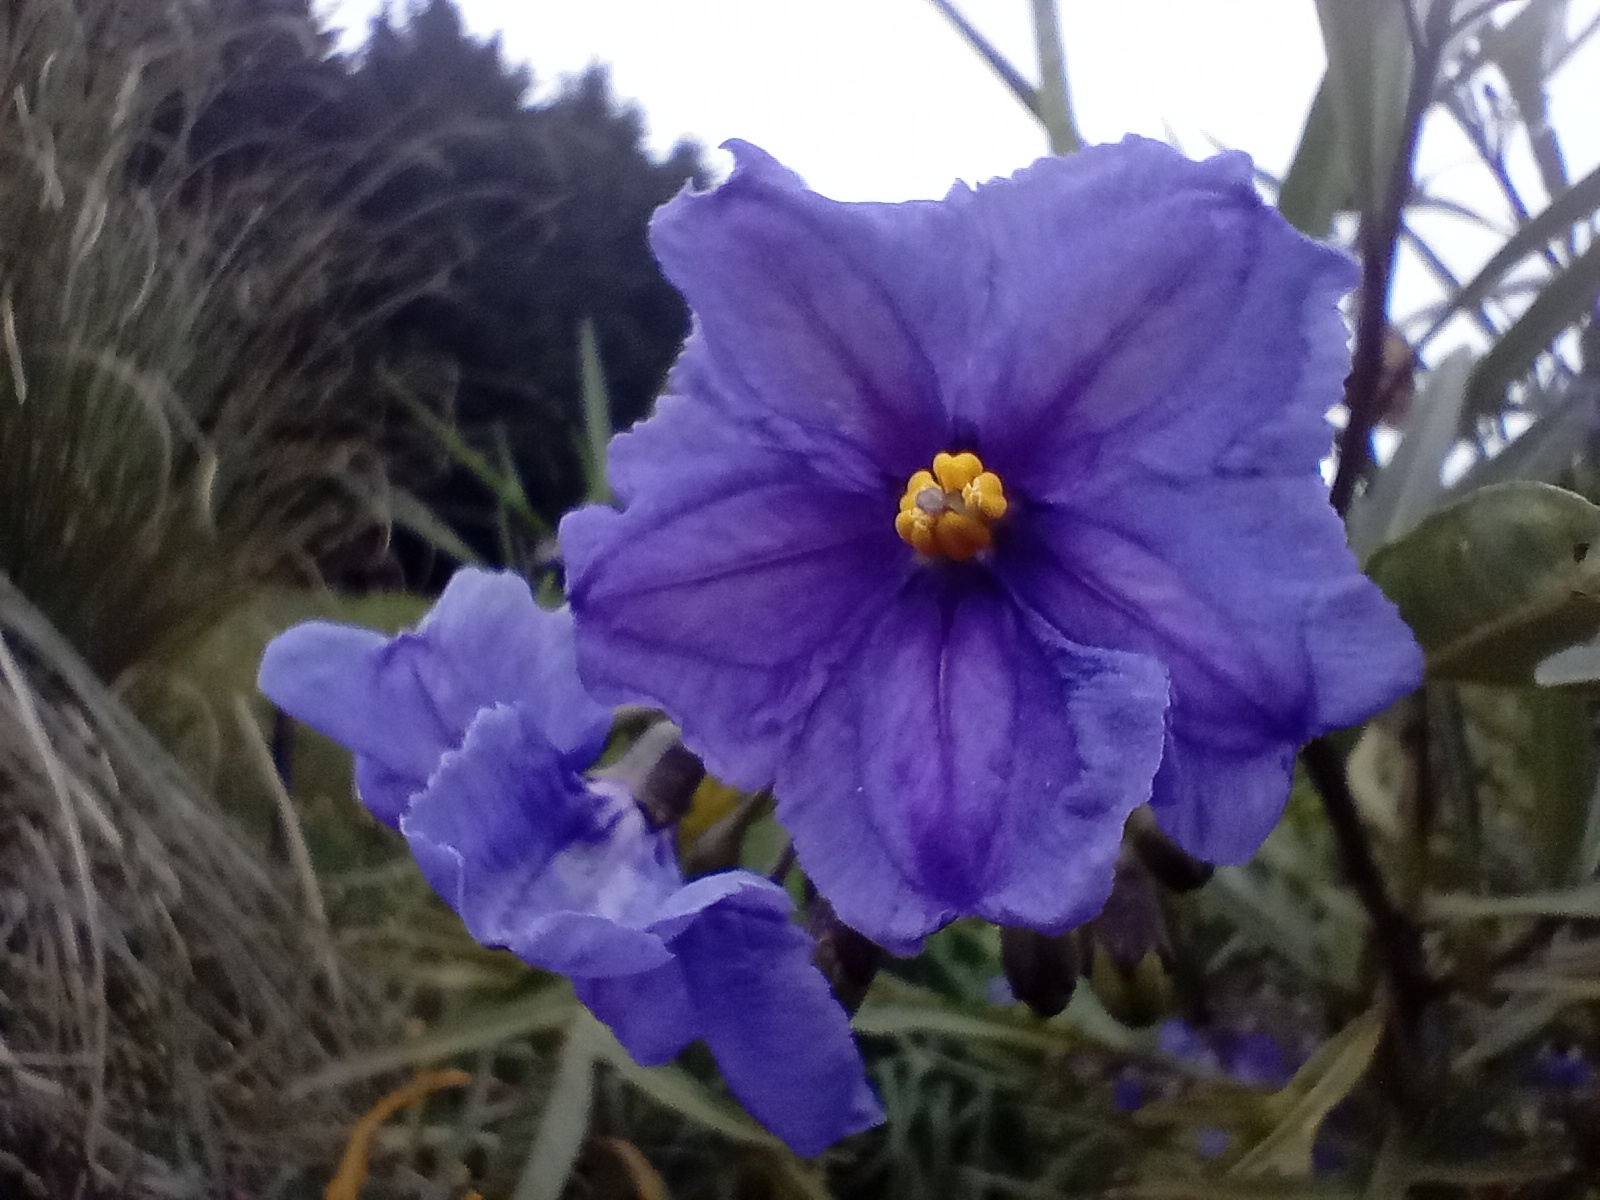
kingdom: Plantae
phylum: Tracheophyta
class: Magnoliopsida
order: Solanales
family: Solanaceae
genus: Solanum
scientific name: Solanum laciniatum
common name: Kangaroo-apple
